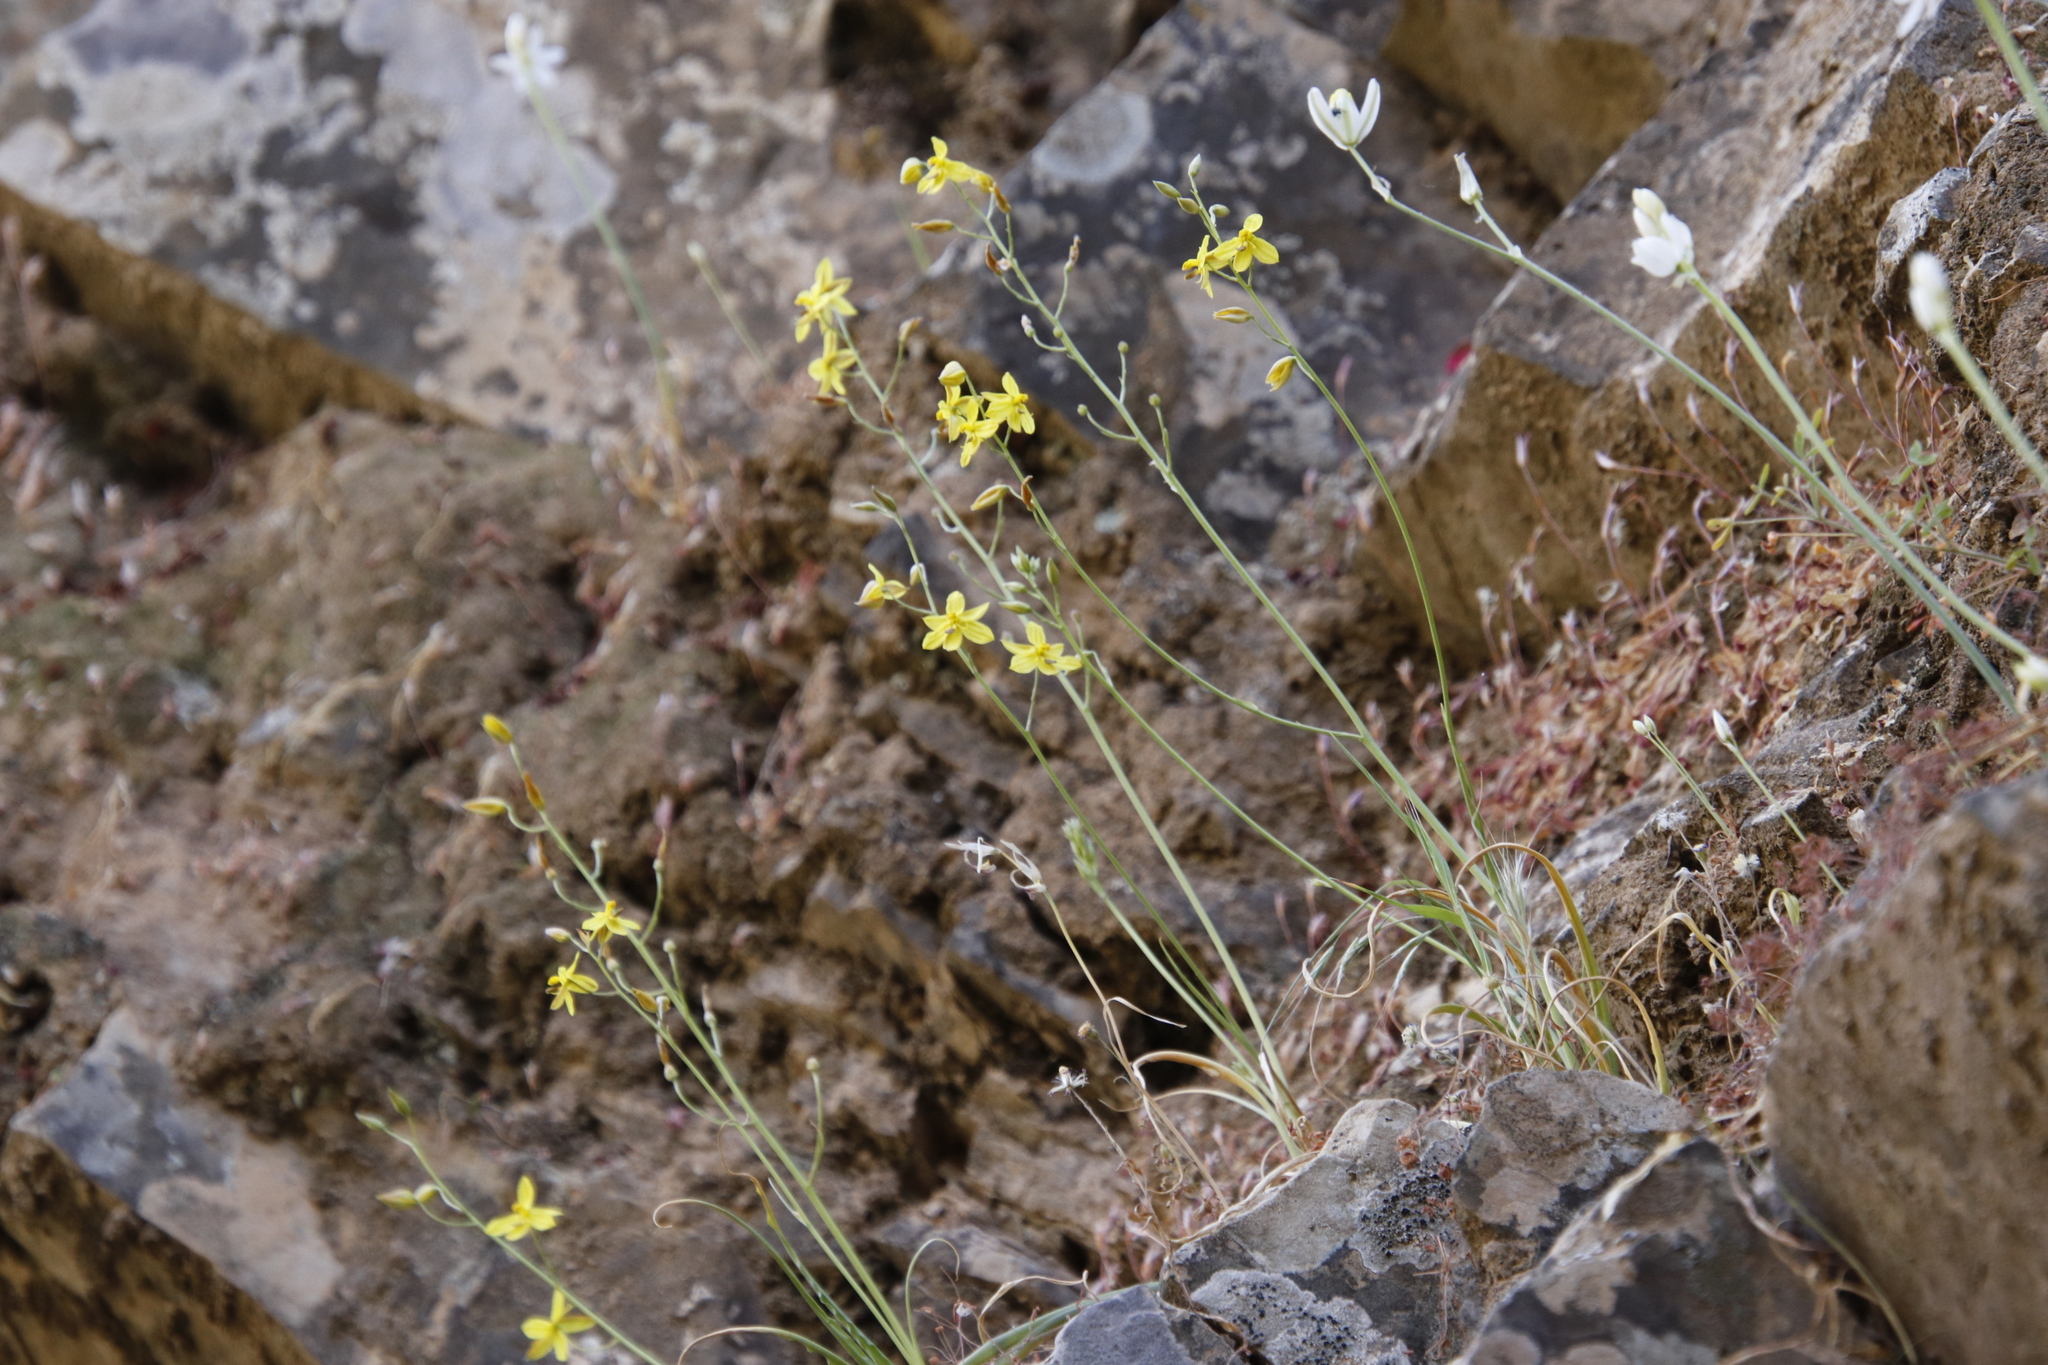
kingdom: Plantae
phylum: Tracheophyta
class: Liliopsida
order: Asparagales
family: Tecophilaeaceae
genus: Cyanella
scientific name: Cyanella lutea
